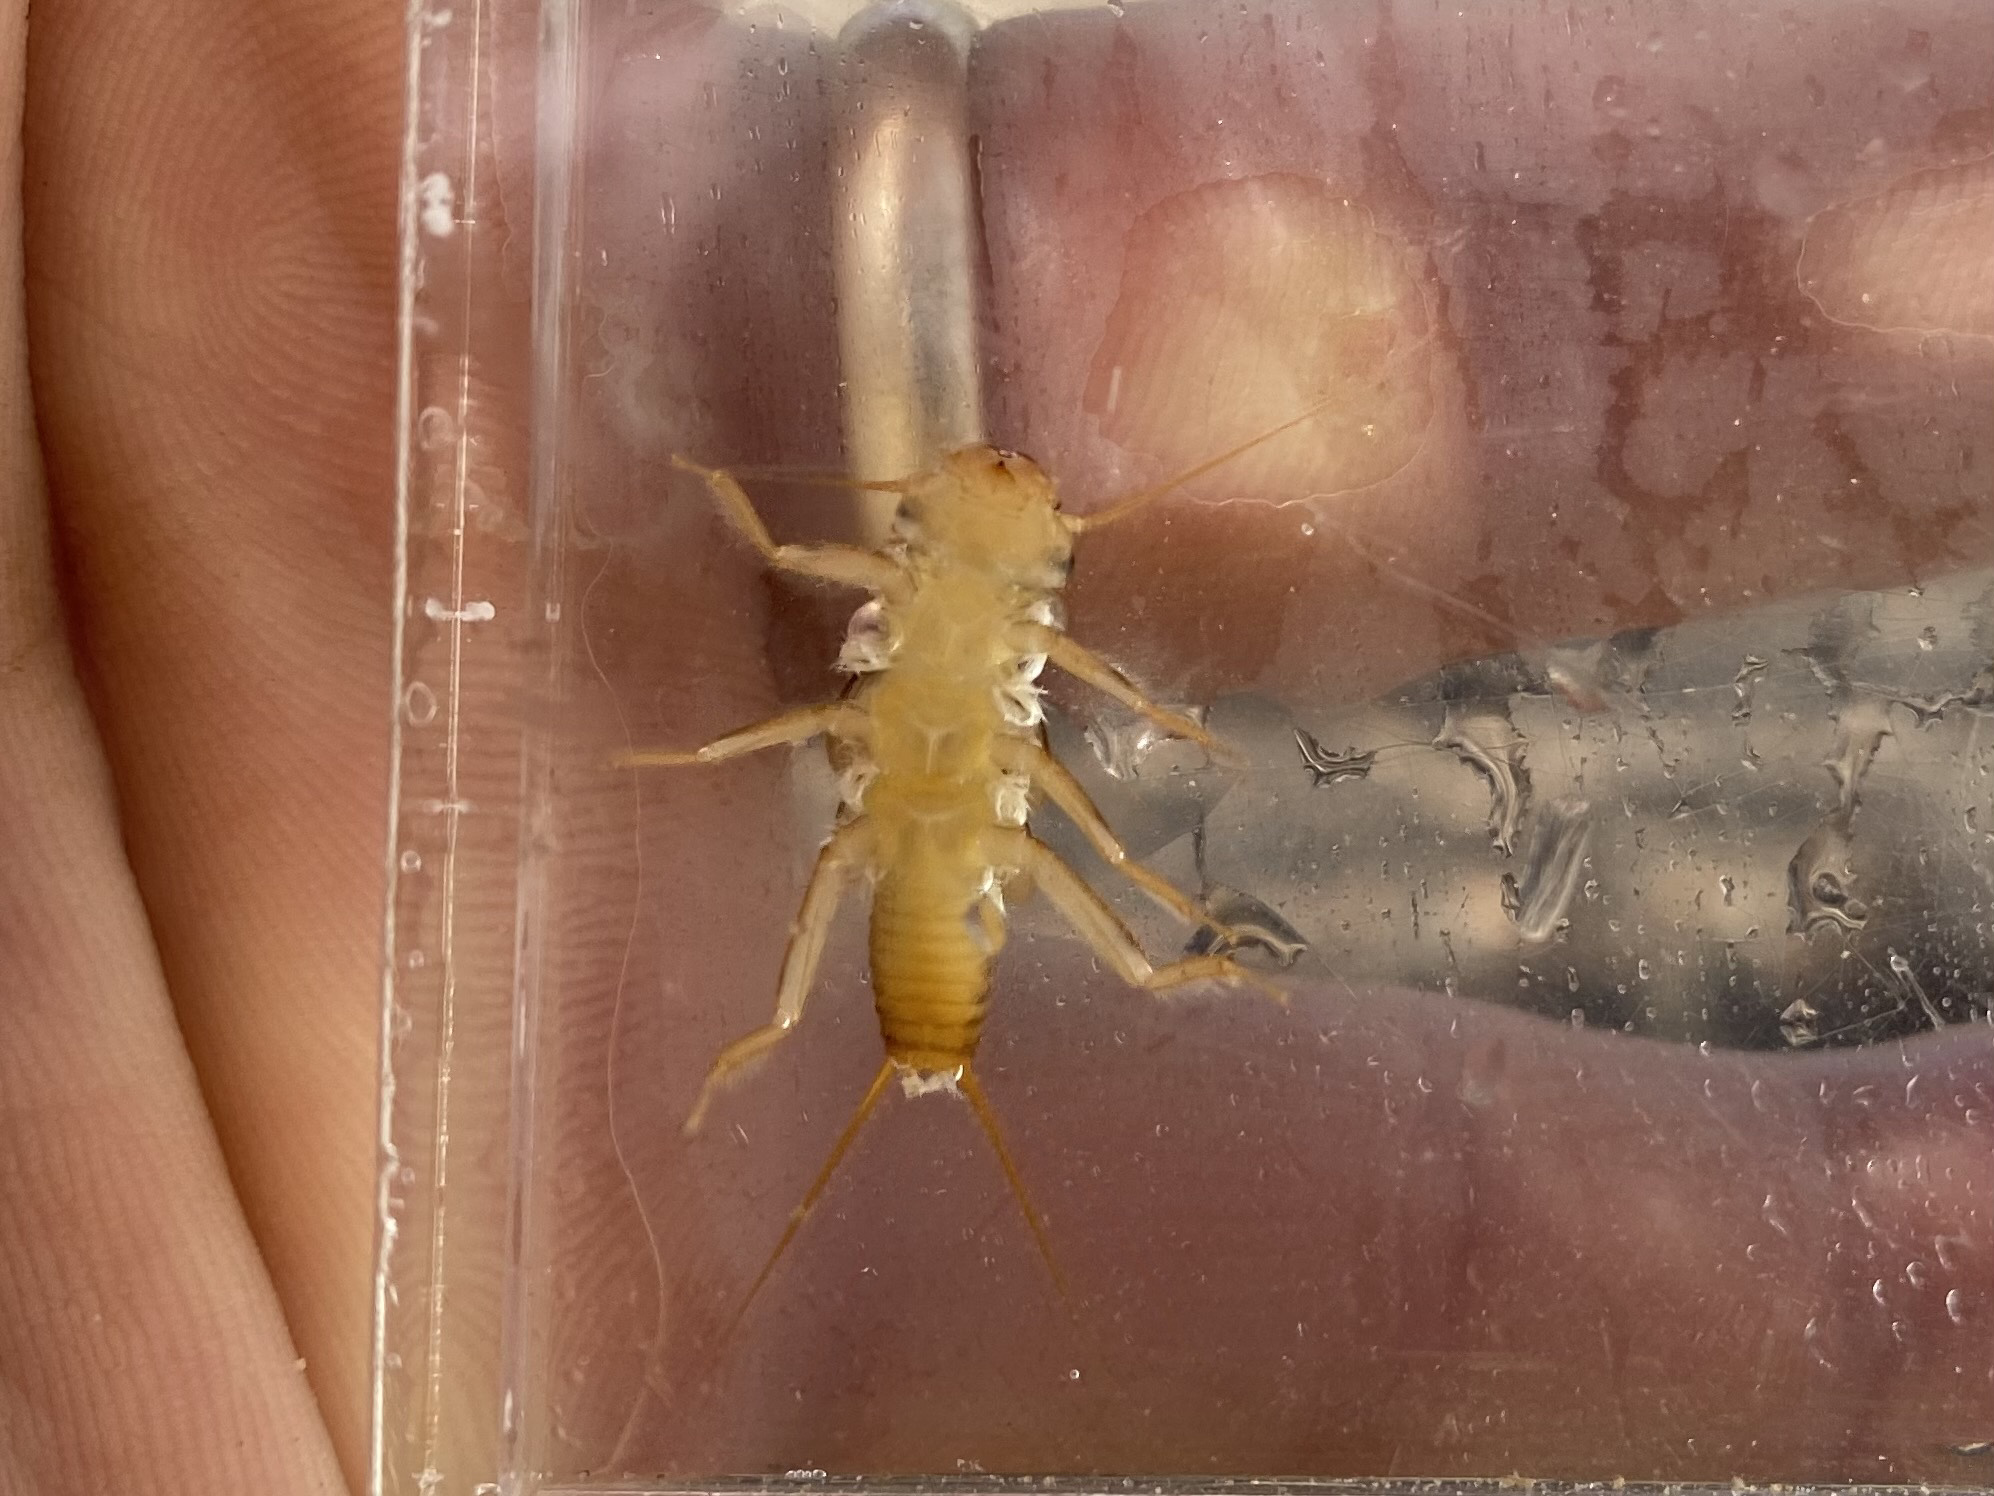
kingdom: Animalia
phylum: Arthropoda
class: Insecta
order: Plecoptera
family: Perlidae
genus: Eccoptura
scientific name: Eccoptura xanthenes
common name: Yellow stone
